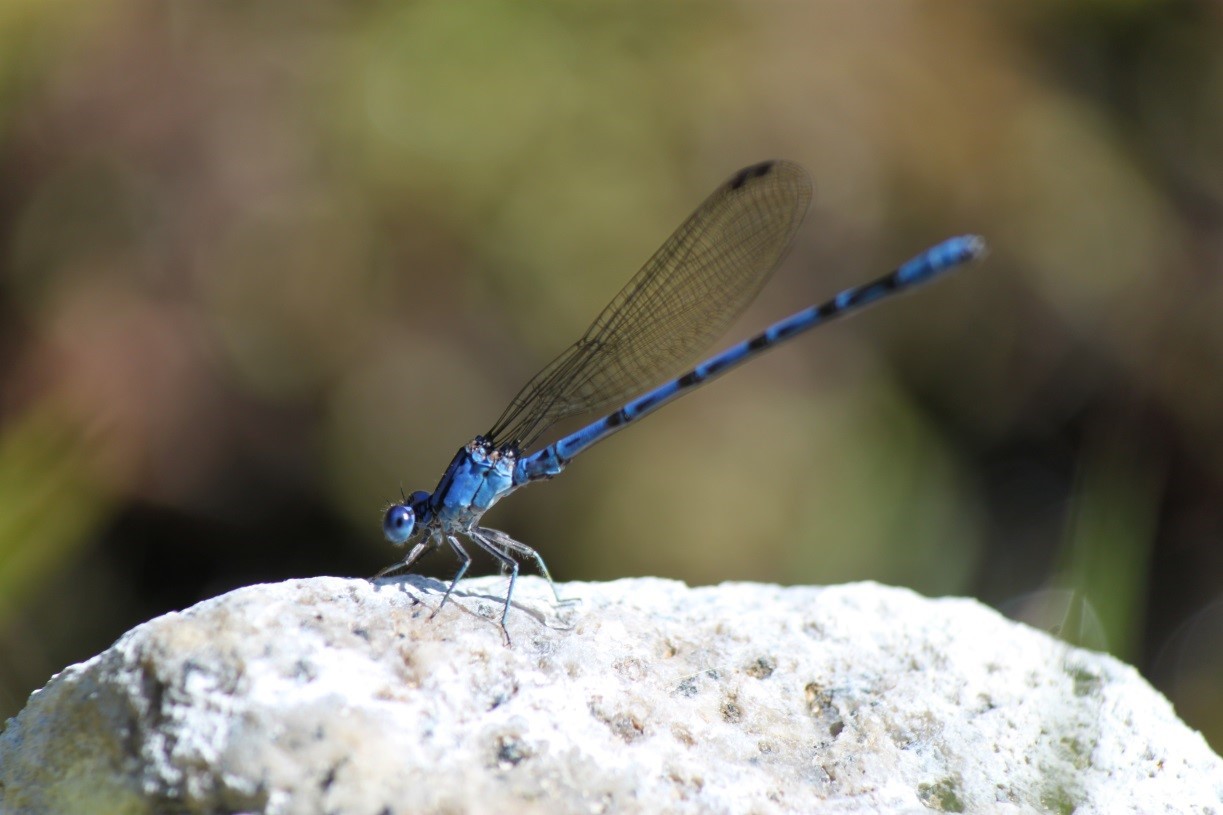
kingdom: Animalia
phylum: Arthropoda
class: Insecta
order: Odonata
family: Coenagrionidae
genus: Argia
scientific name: Argia vivida
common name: Vivid dancer
